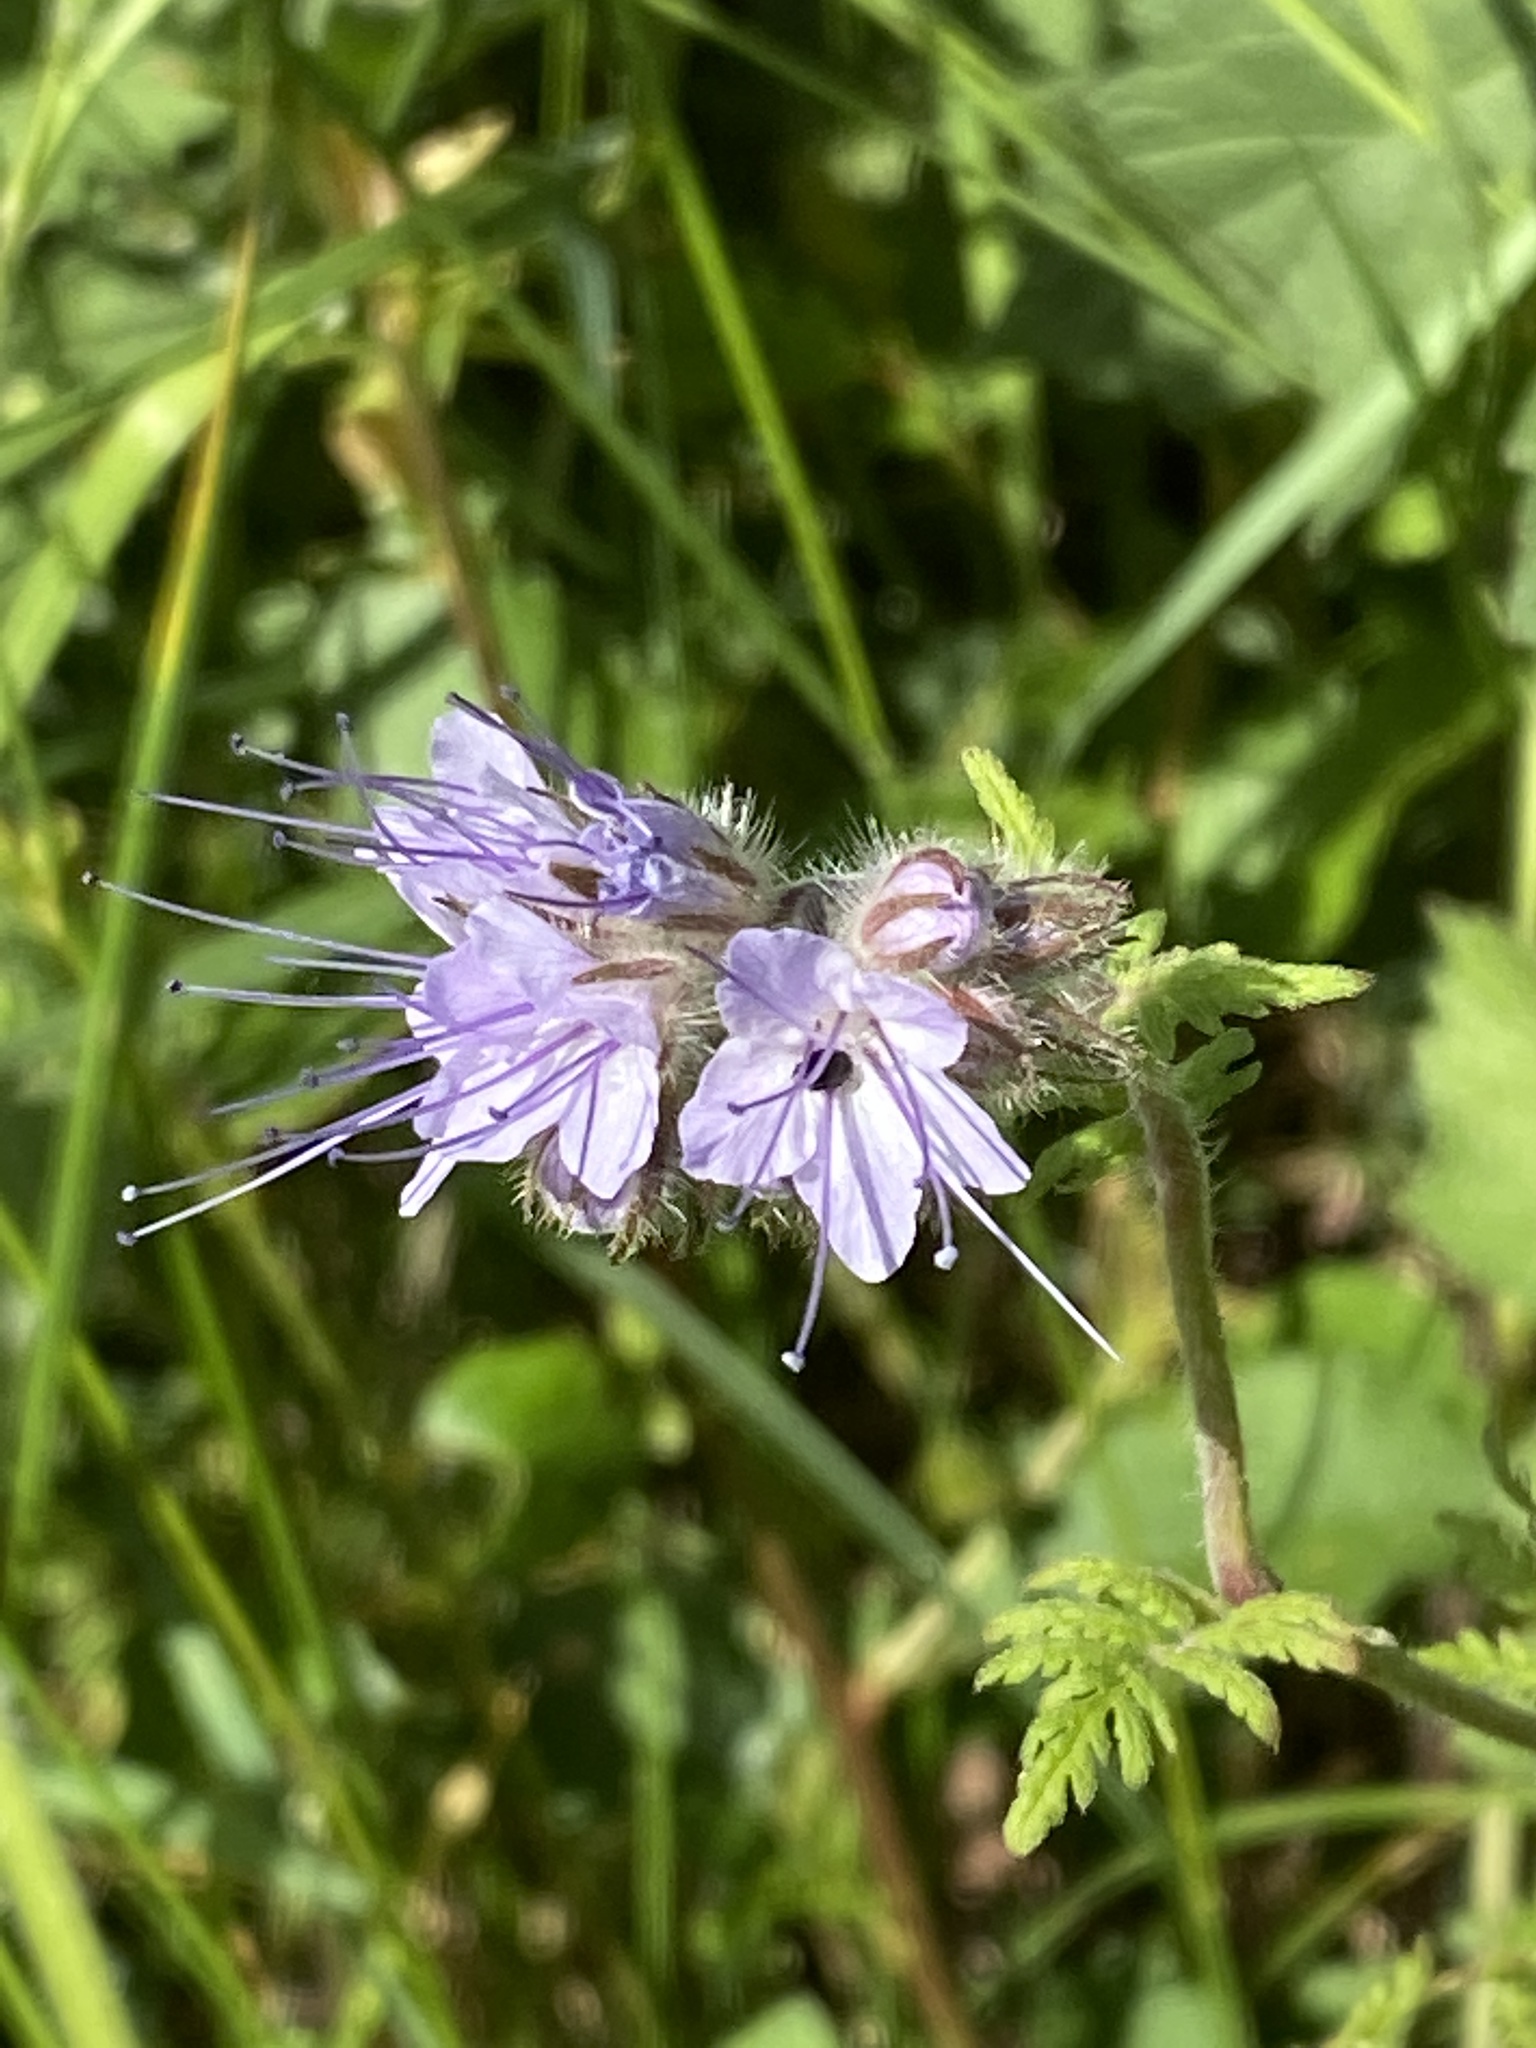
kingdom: Plantae
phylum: Tracheophyta
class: Magnoliopsida
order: Boraginales
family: Hydrophyllaceae
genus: Phacelia
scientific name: Phacelia tanacetifolia
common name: Phacelia
